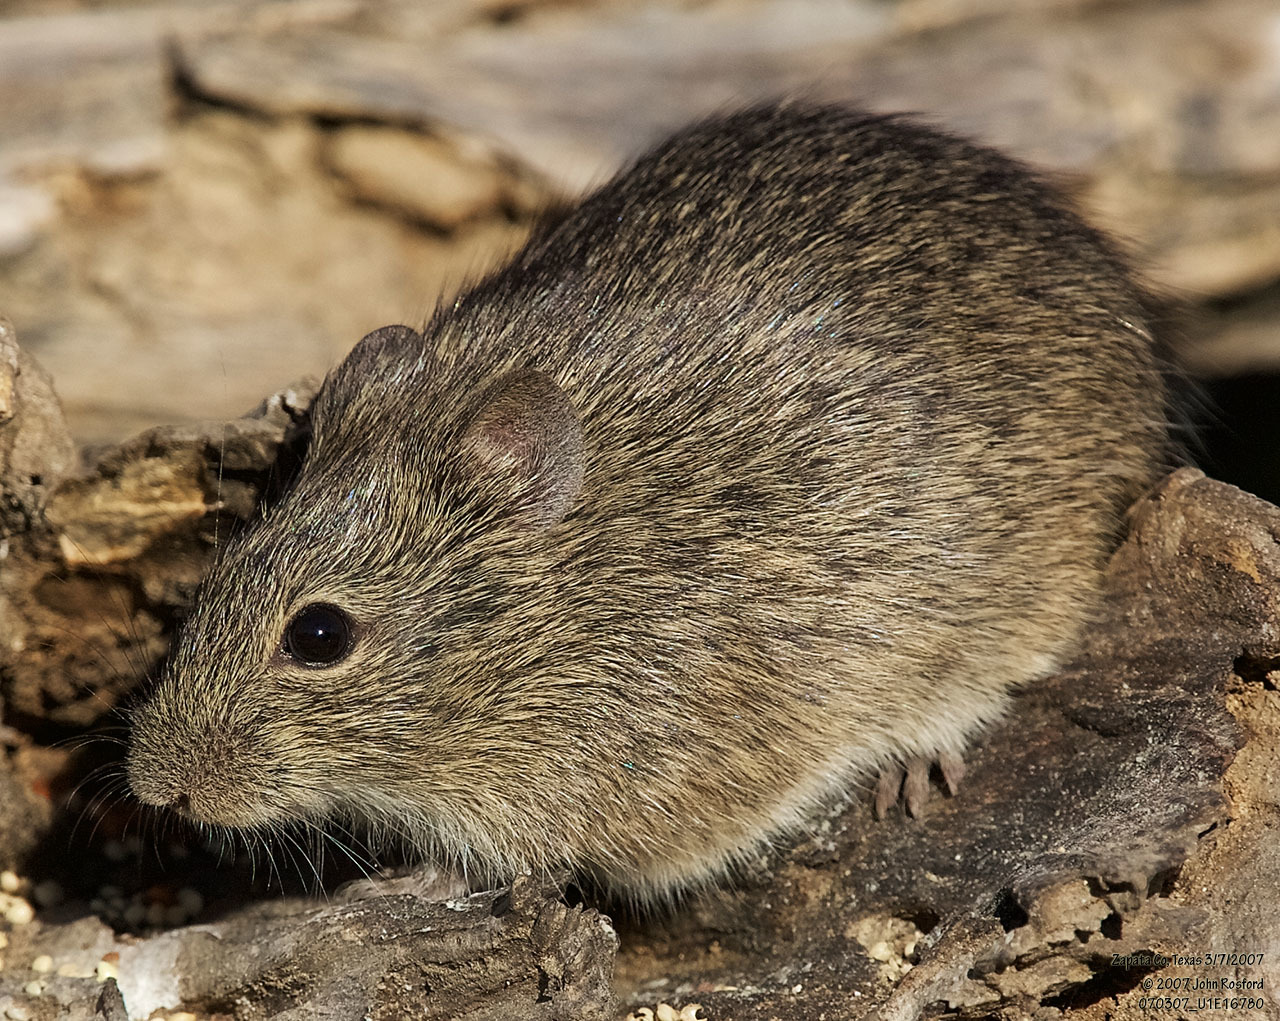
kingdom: Animalia
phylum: Chordata
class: Mammalia
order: Rodentia
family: Cricetidae
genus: Sigmodon
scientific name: Sigmodon hispidus
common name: Hispid cotton rat
